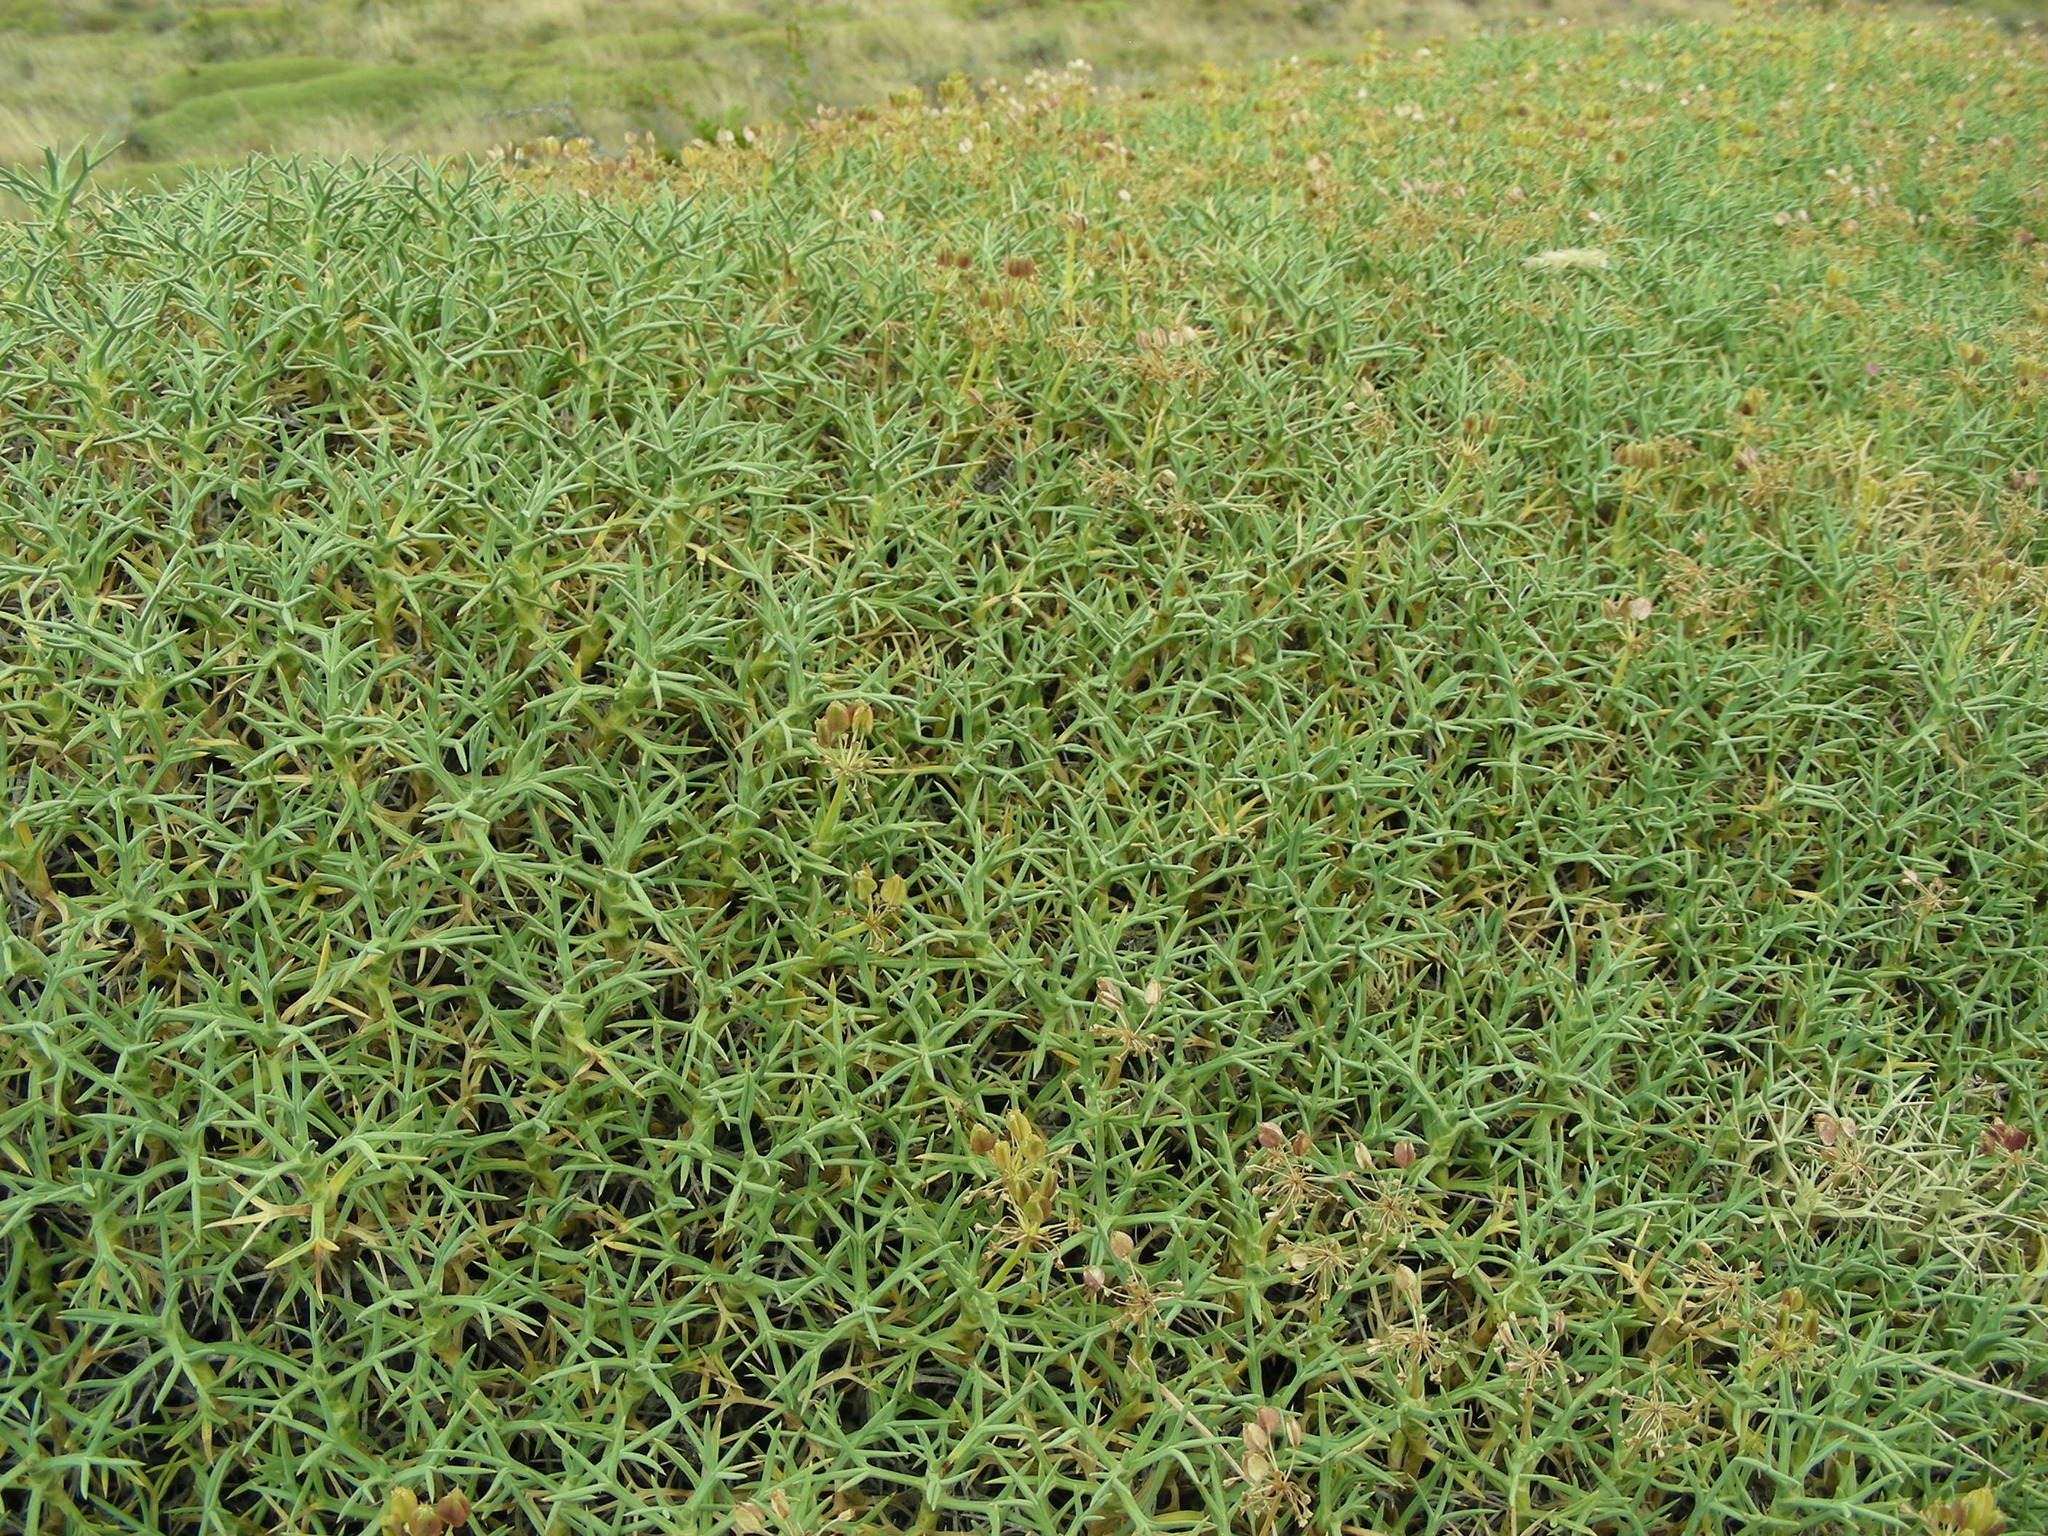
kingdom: Plantae
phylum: Tracheophyta
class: Magnoliopsida
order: Santalales
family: Schoepfiaceae
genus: Quinchamalium
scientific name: Quinchamalium chilense
